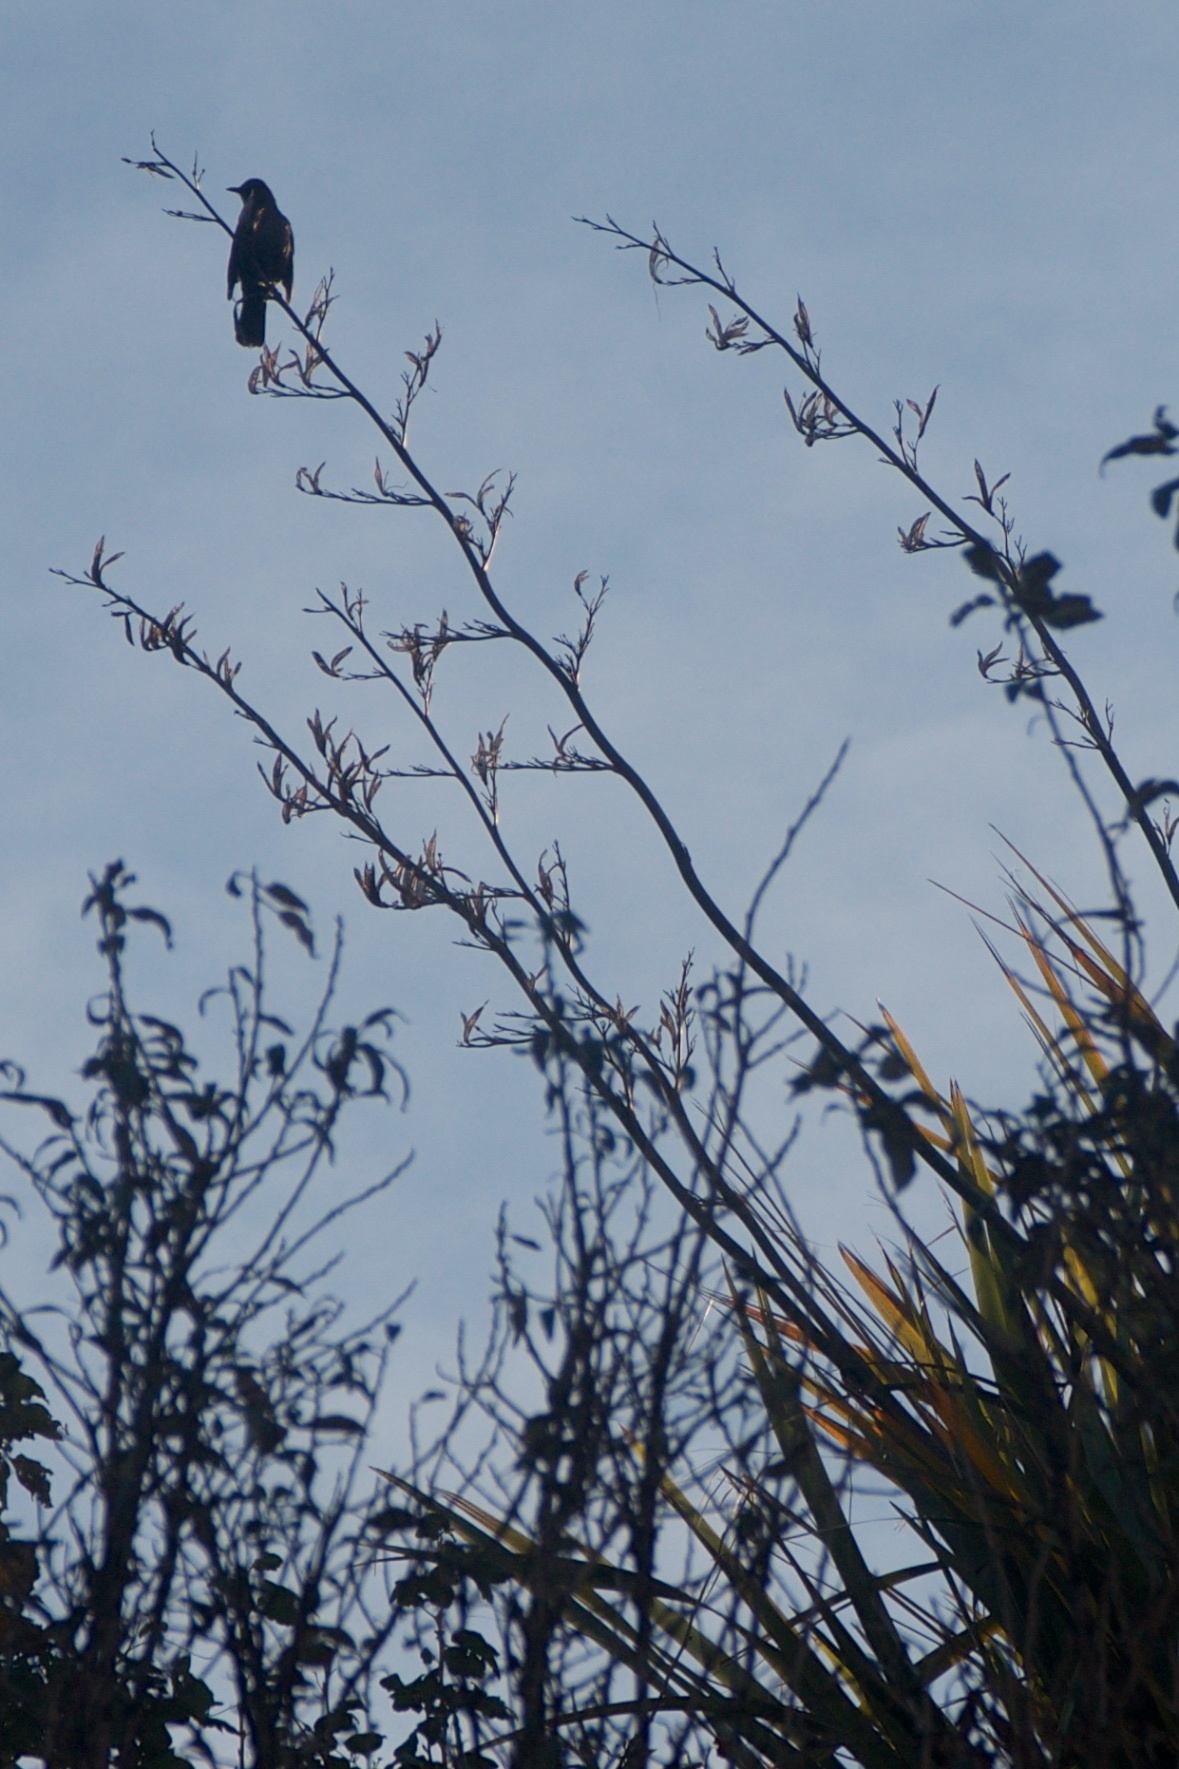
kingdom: Animalia
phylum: Chordata
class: Aves
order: Passeriformes
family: Turdidae
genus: Turdus
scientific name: Turdus merula
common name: Common blackbird
